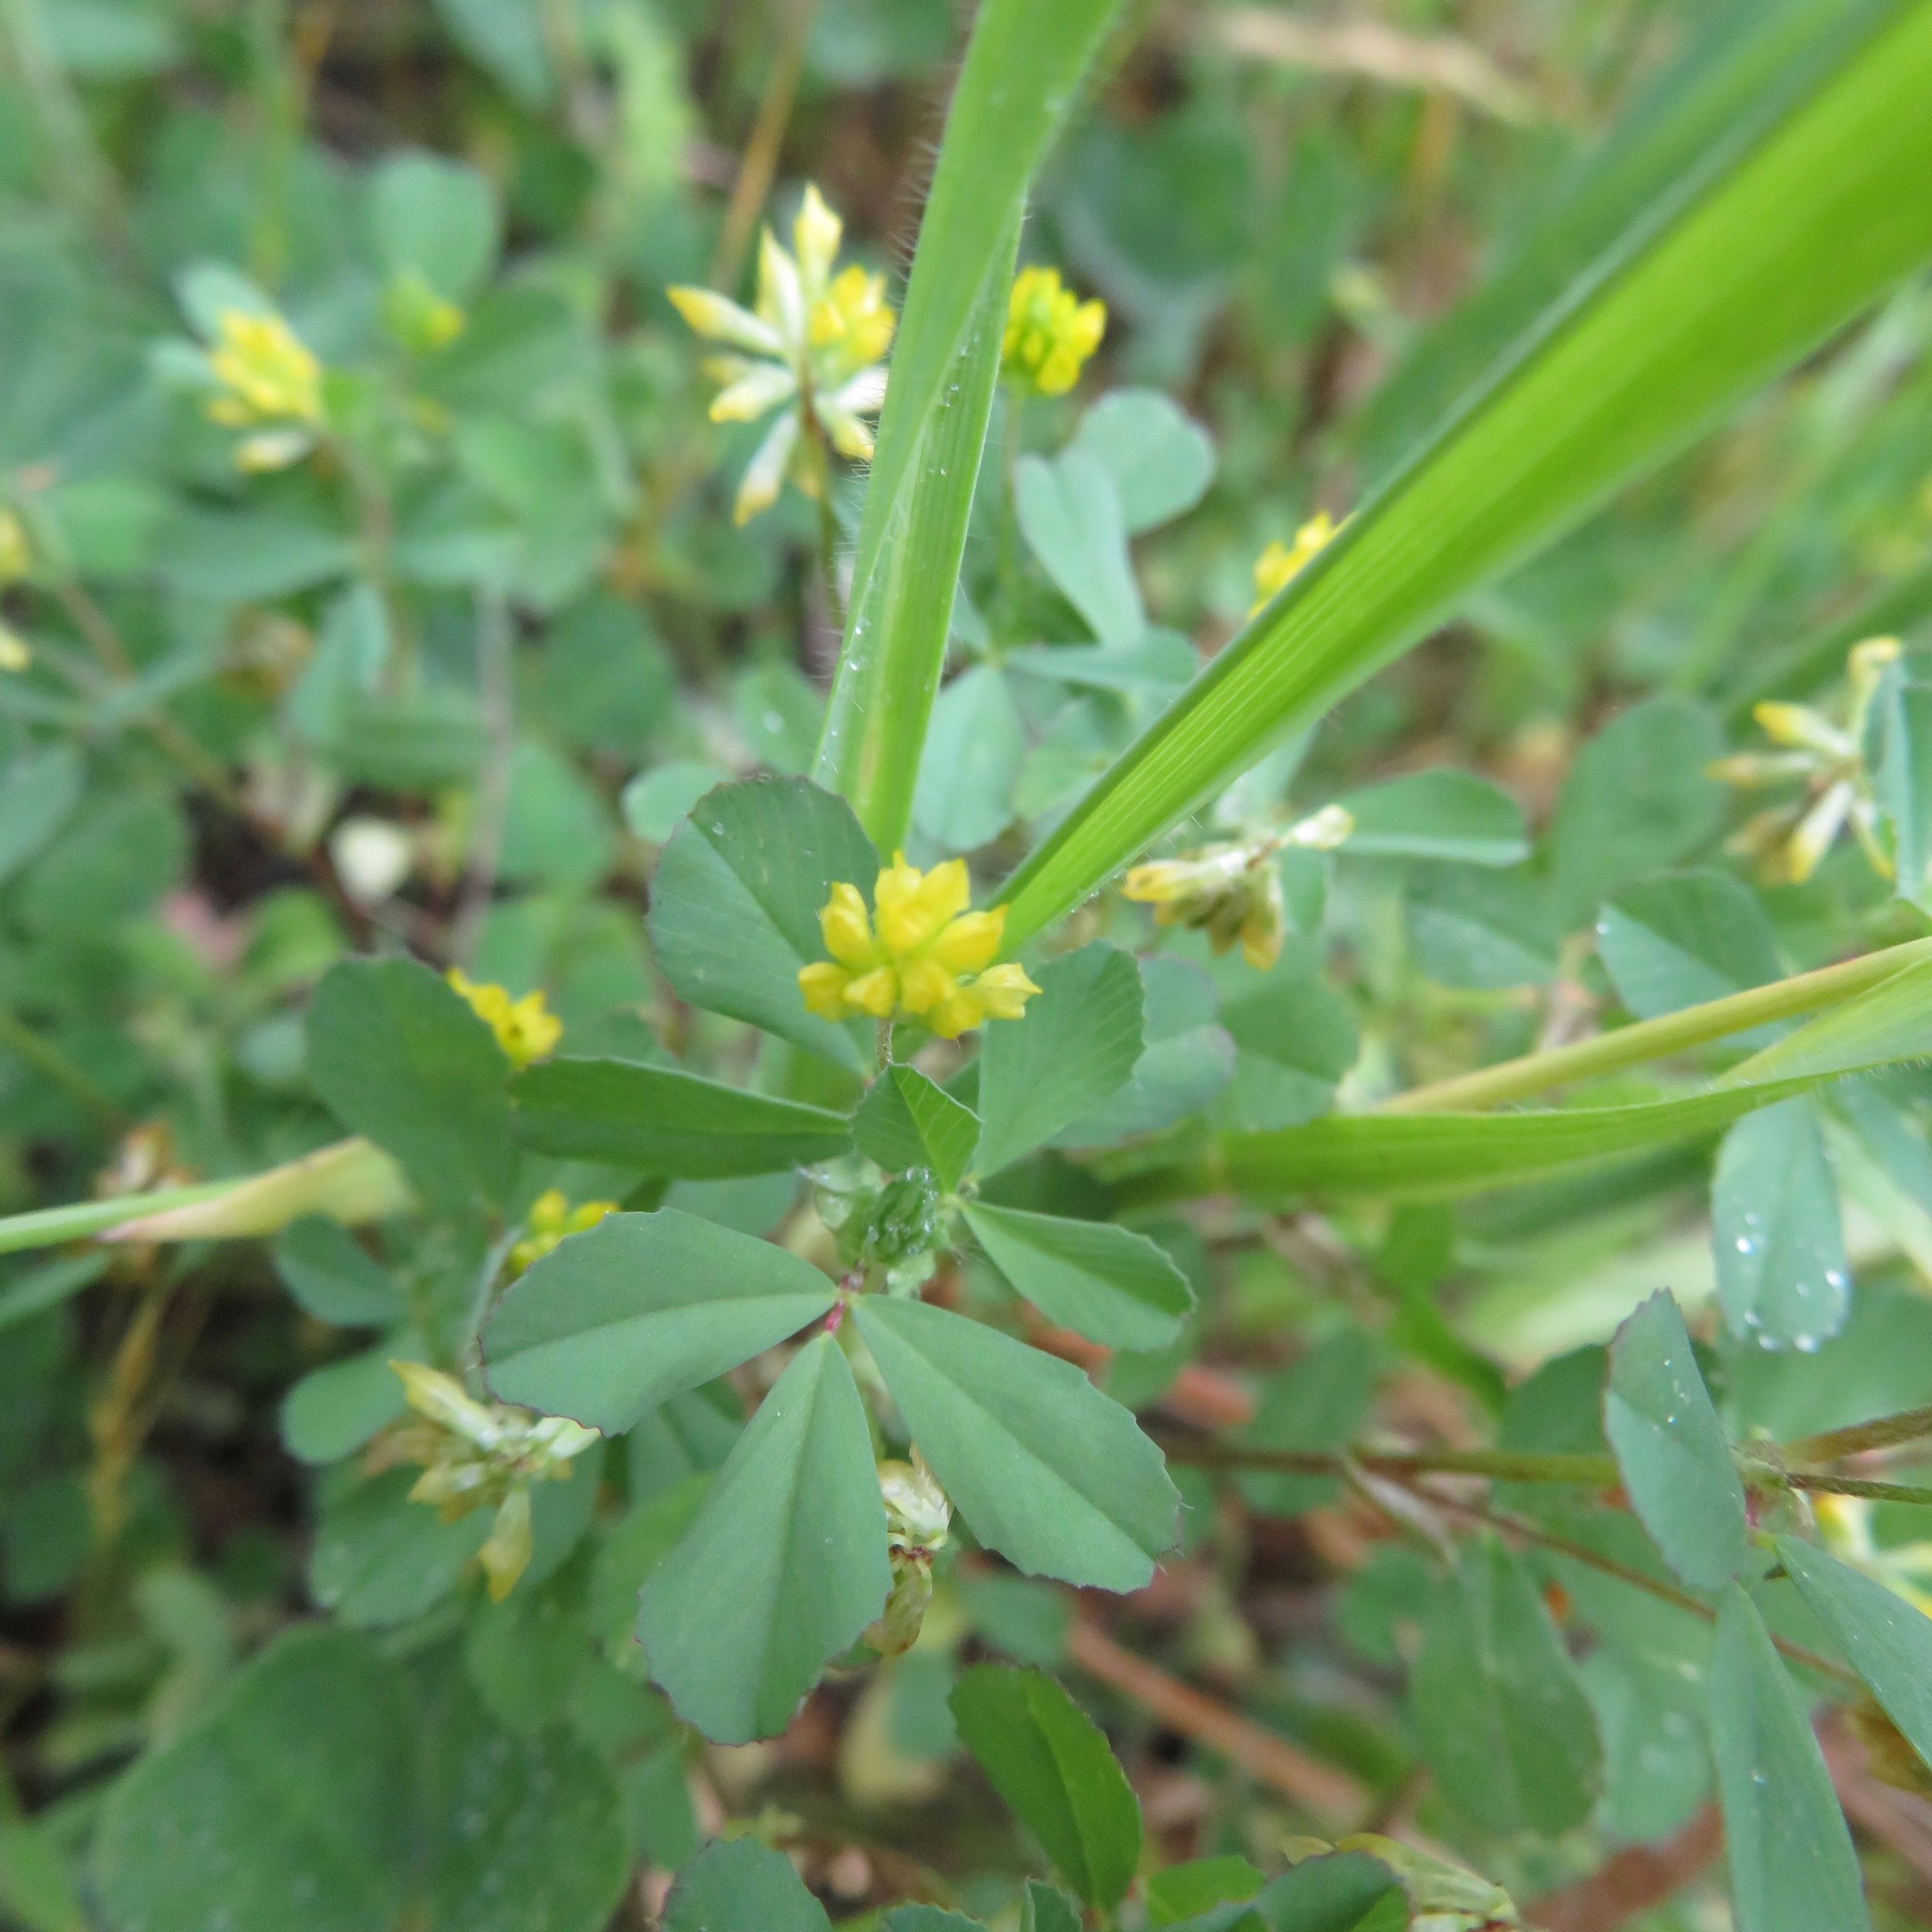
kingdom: Plantae
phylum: Tracheophyta
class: Magnoliopsida
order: Fabales
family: Fabaceae
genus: Trifolium
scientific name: Trifolium dubium
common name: Suckling clover
